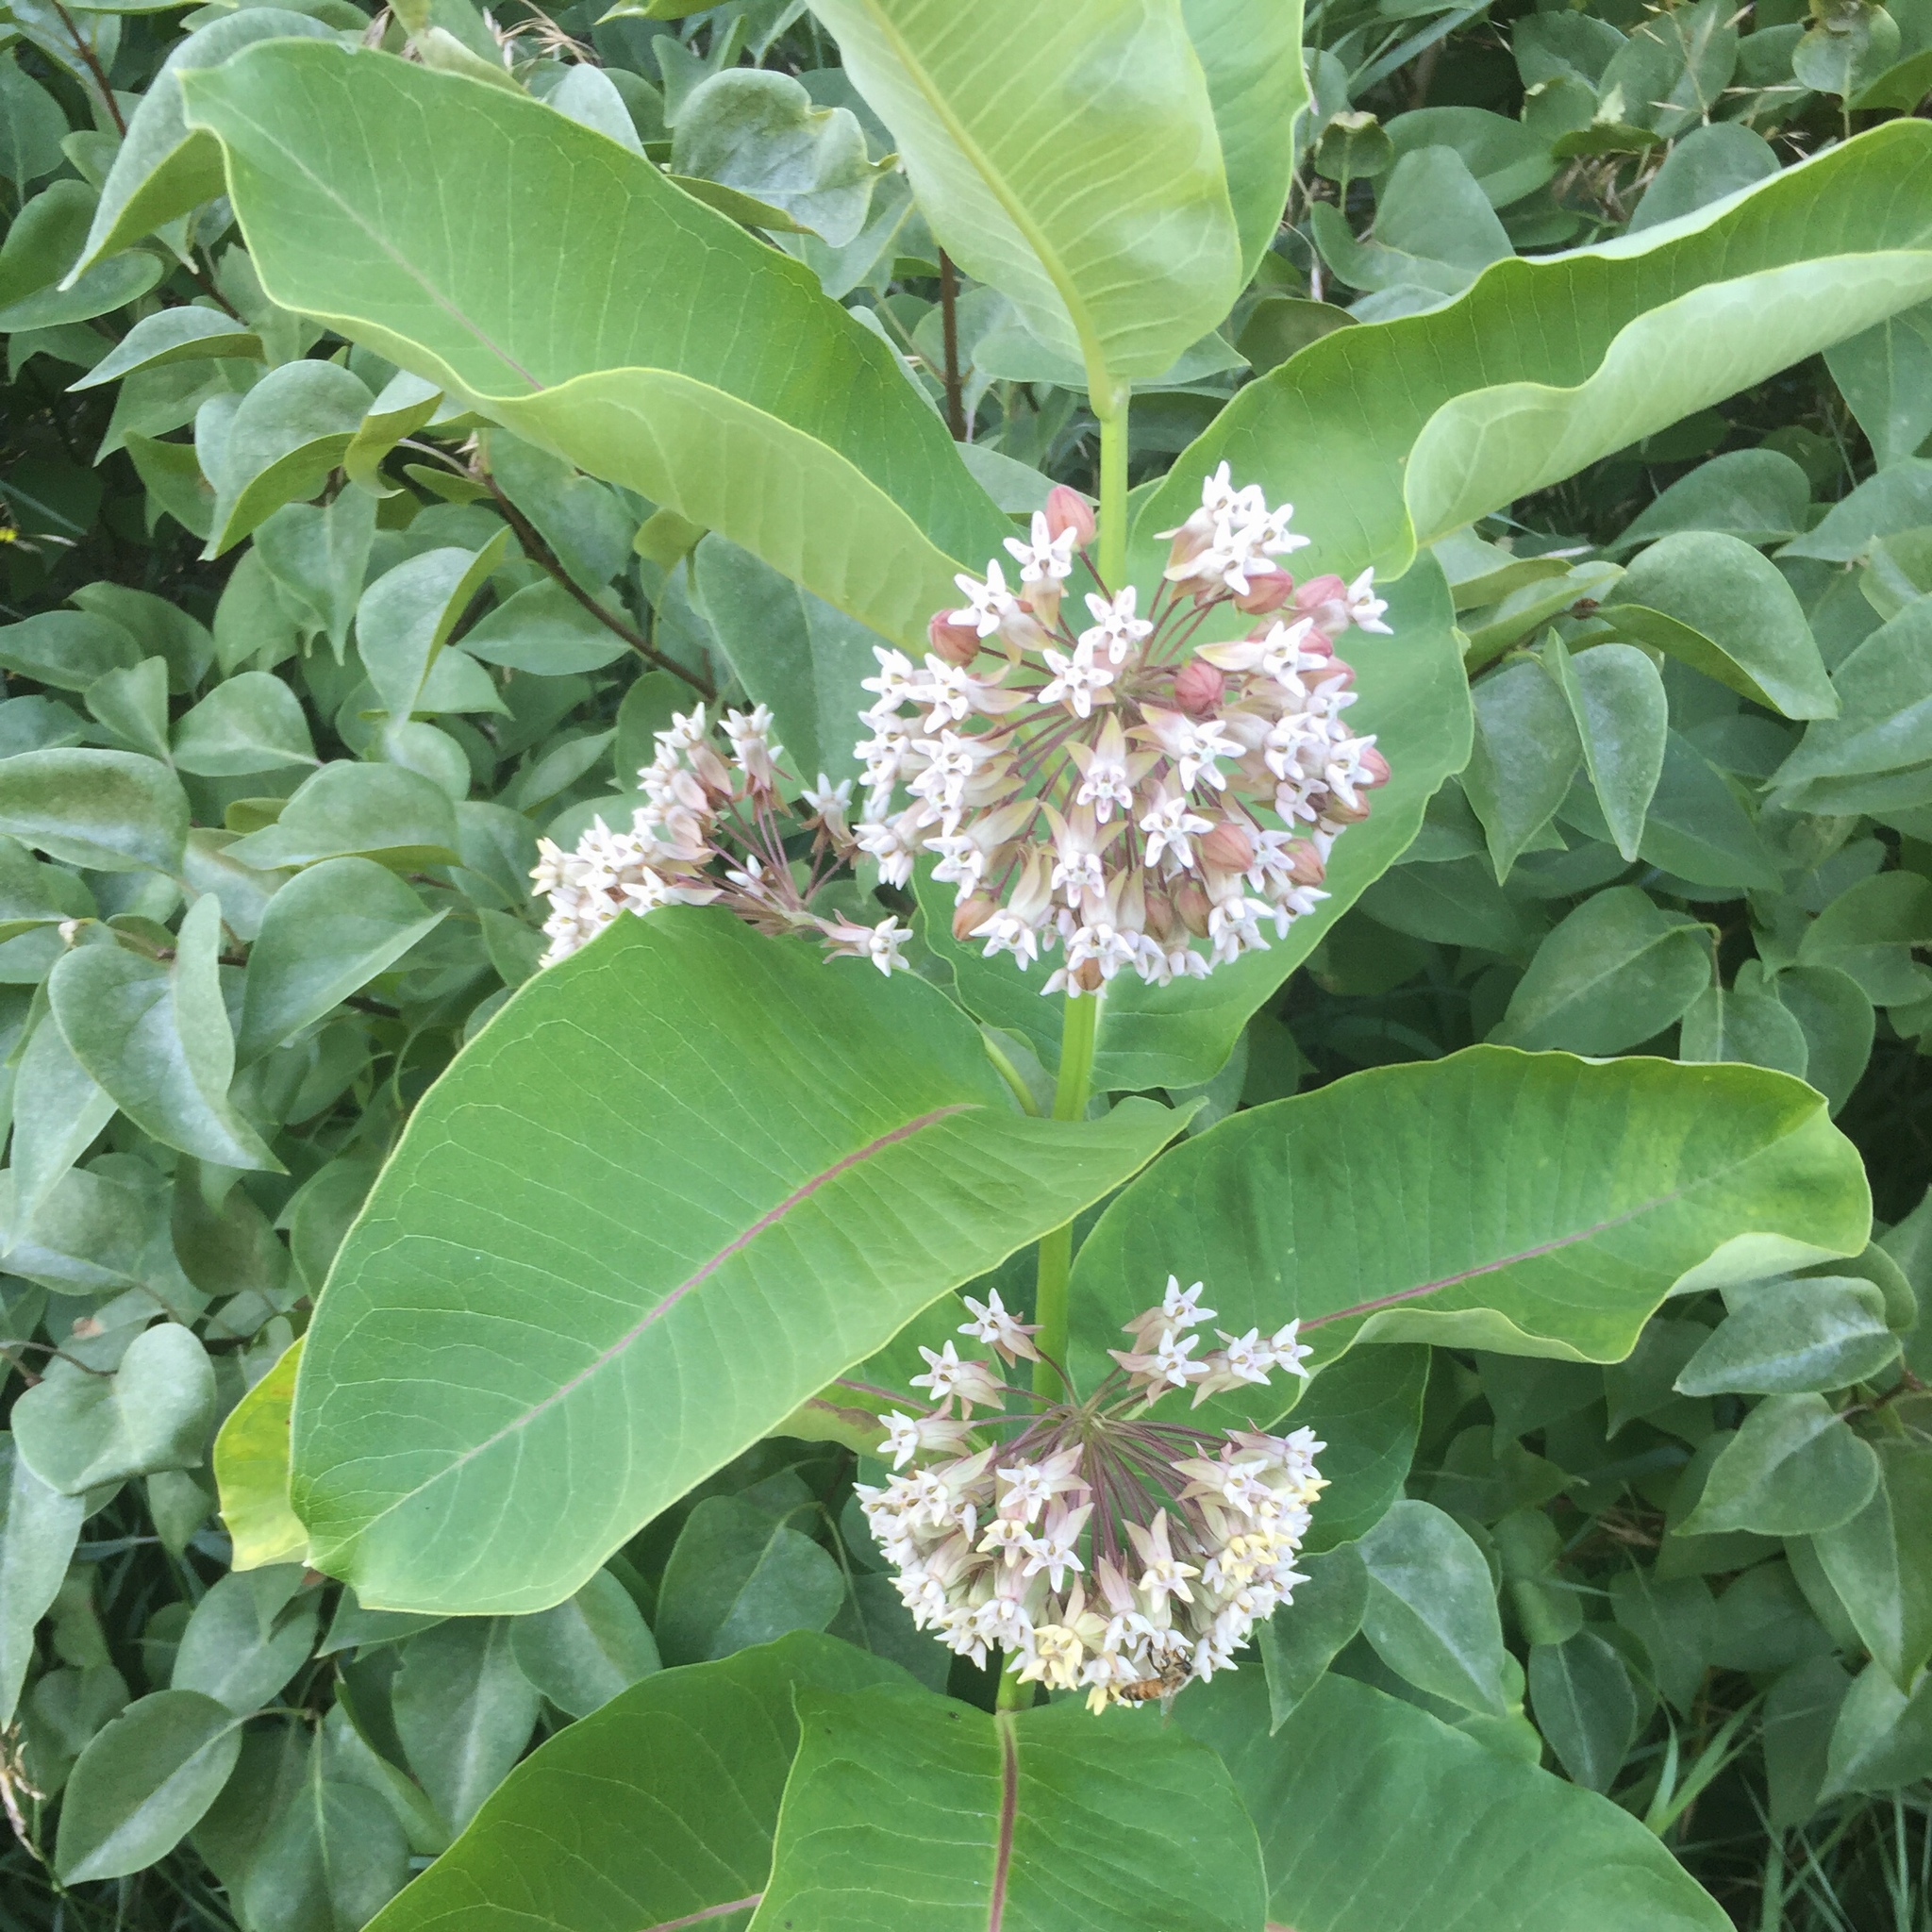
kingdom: Plantae
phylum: Tracheophyta
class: Magnoliopsida
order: Gentianales
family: Apocynaceae
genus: Asclepias
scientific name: Asclepias syriaca
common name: Common milkweed
